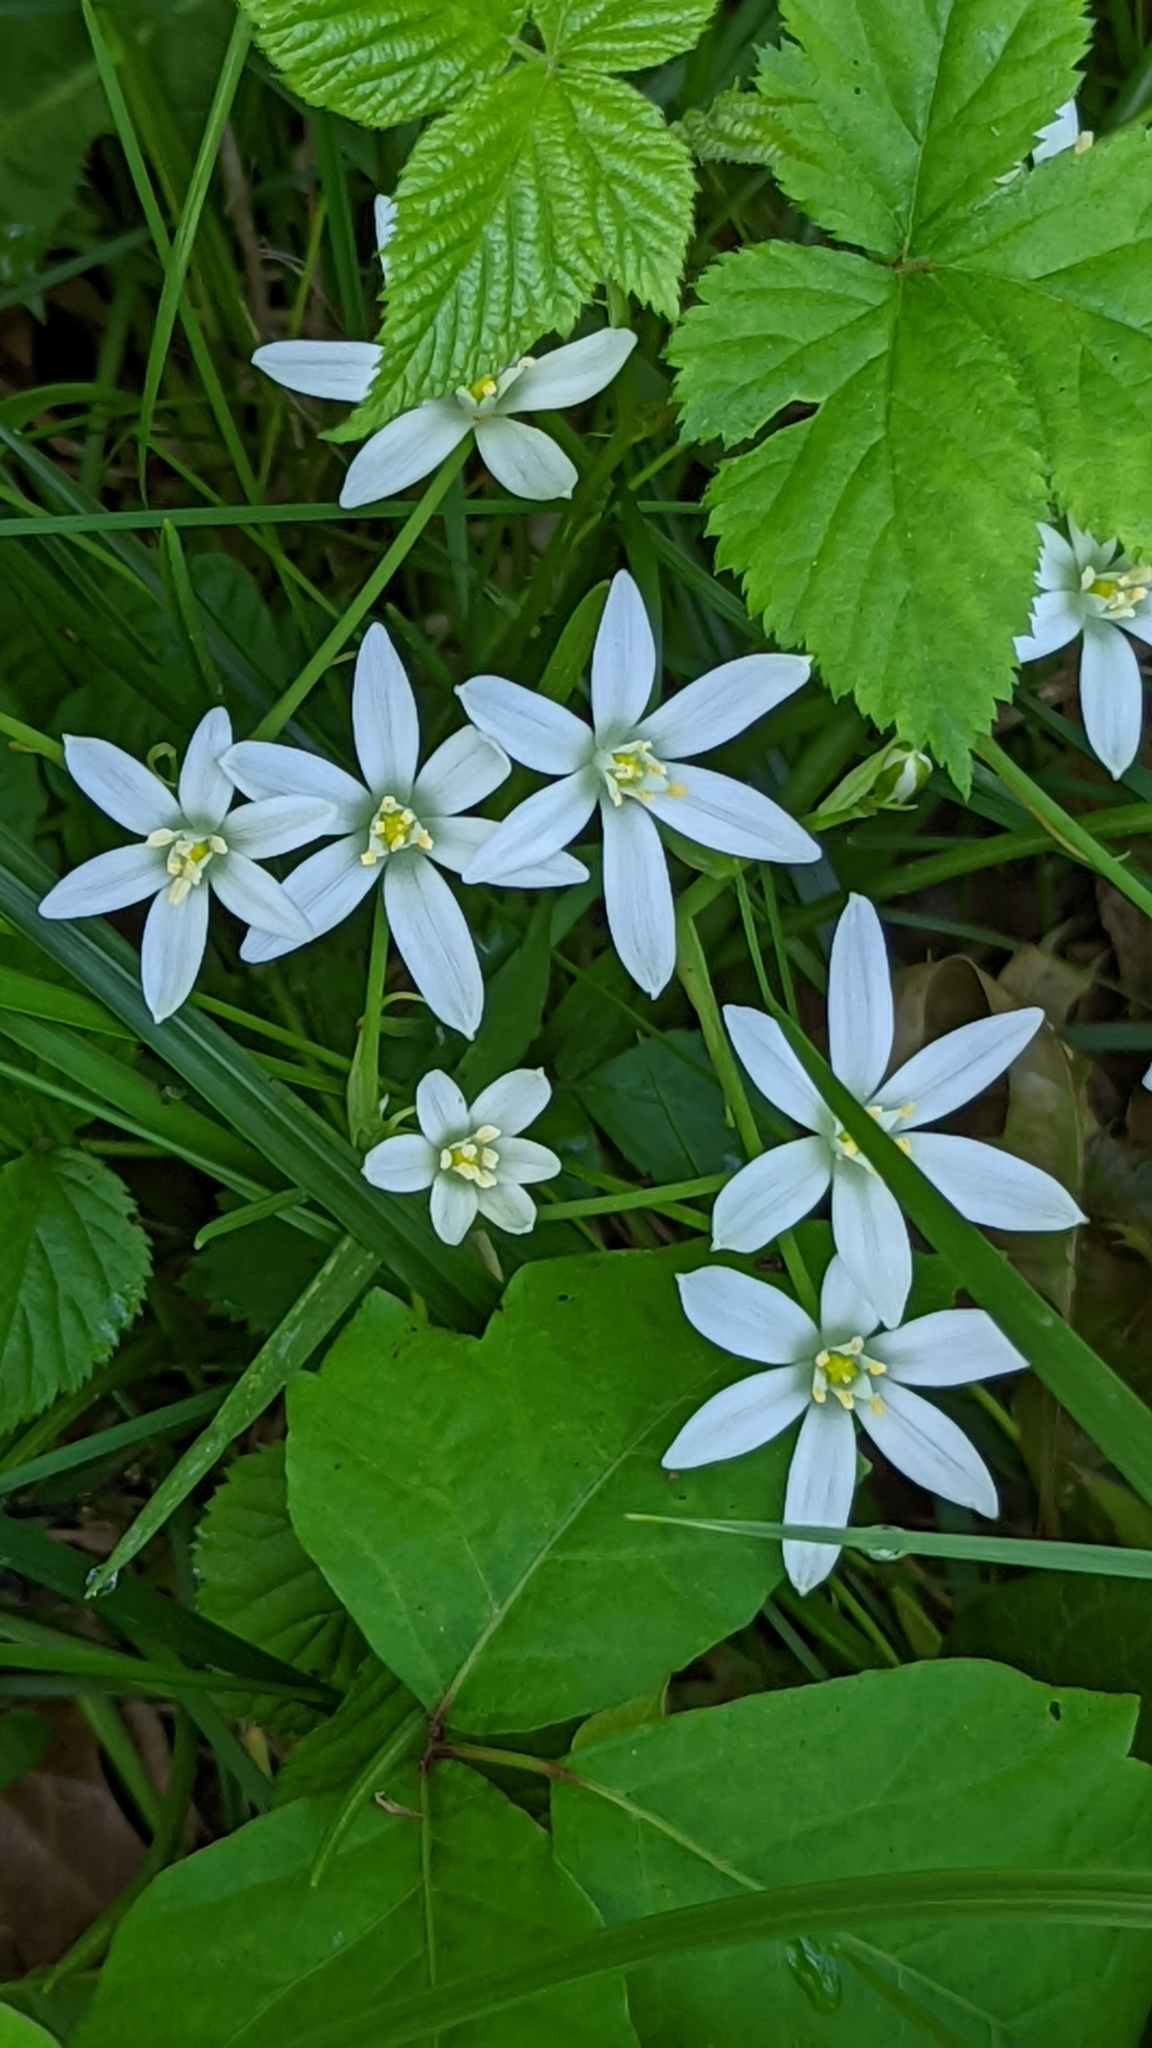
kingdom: Plantae
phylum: Tracheophyta
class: Liliopsida
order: Asparagales
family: Asparagaceae
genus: Ornithogalum
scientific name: Ornithogalum umbellatum
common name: Garden star-of-bethlehem
